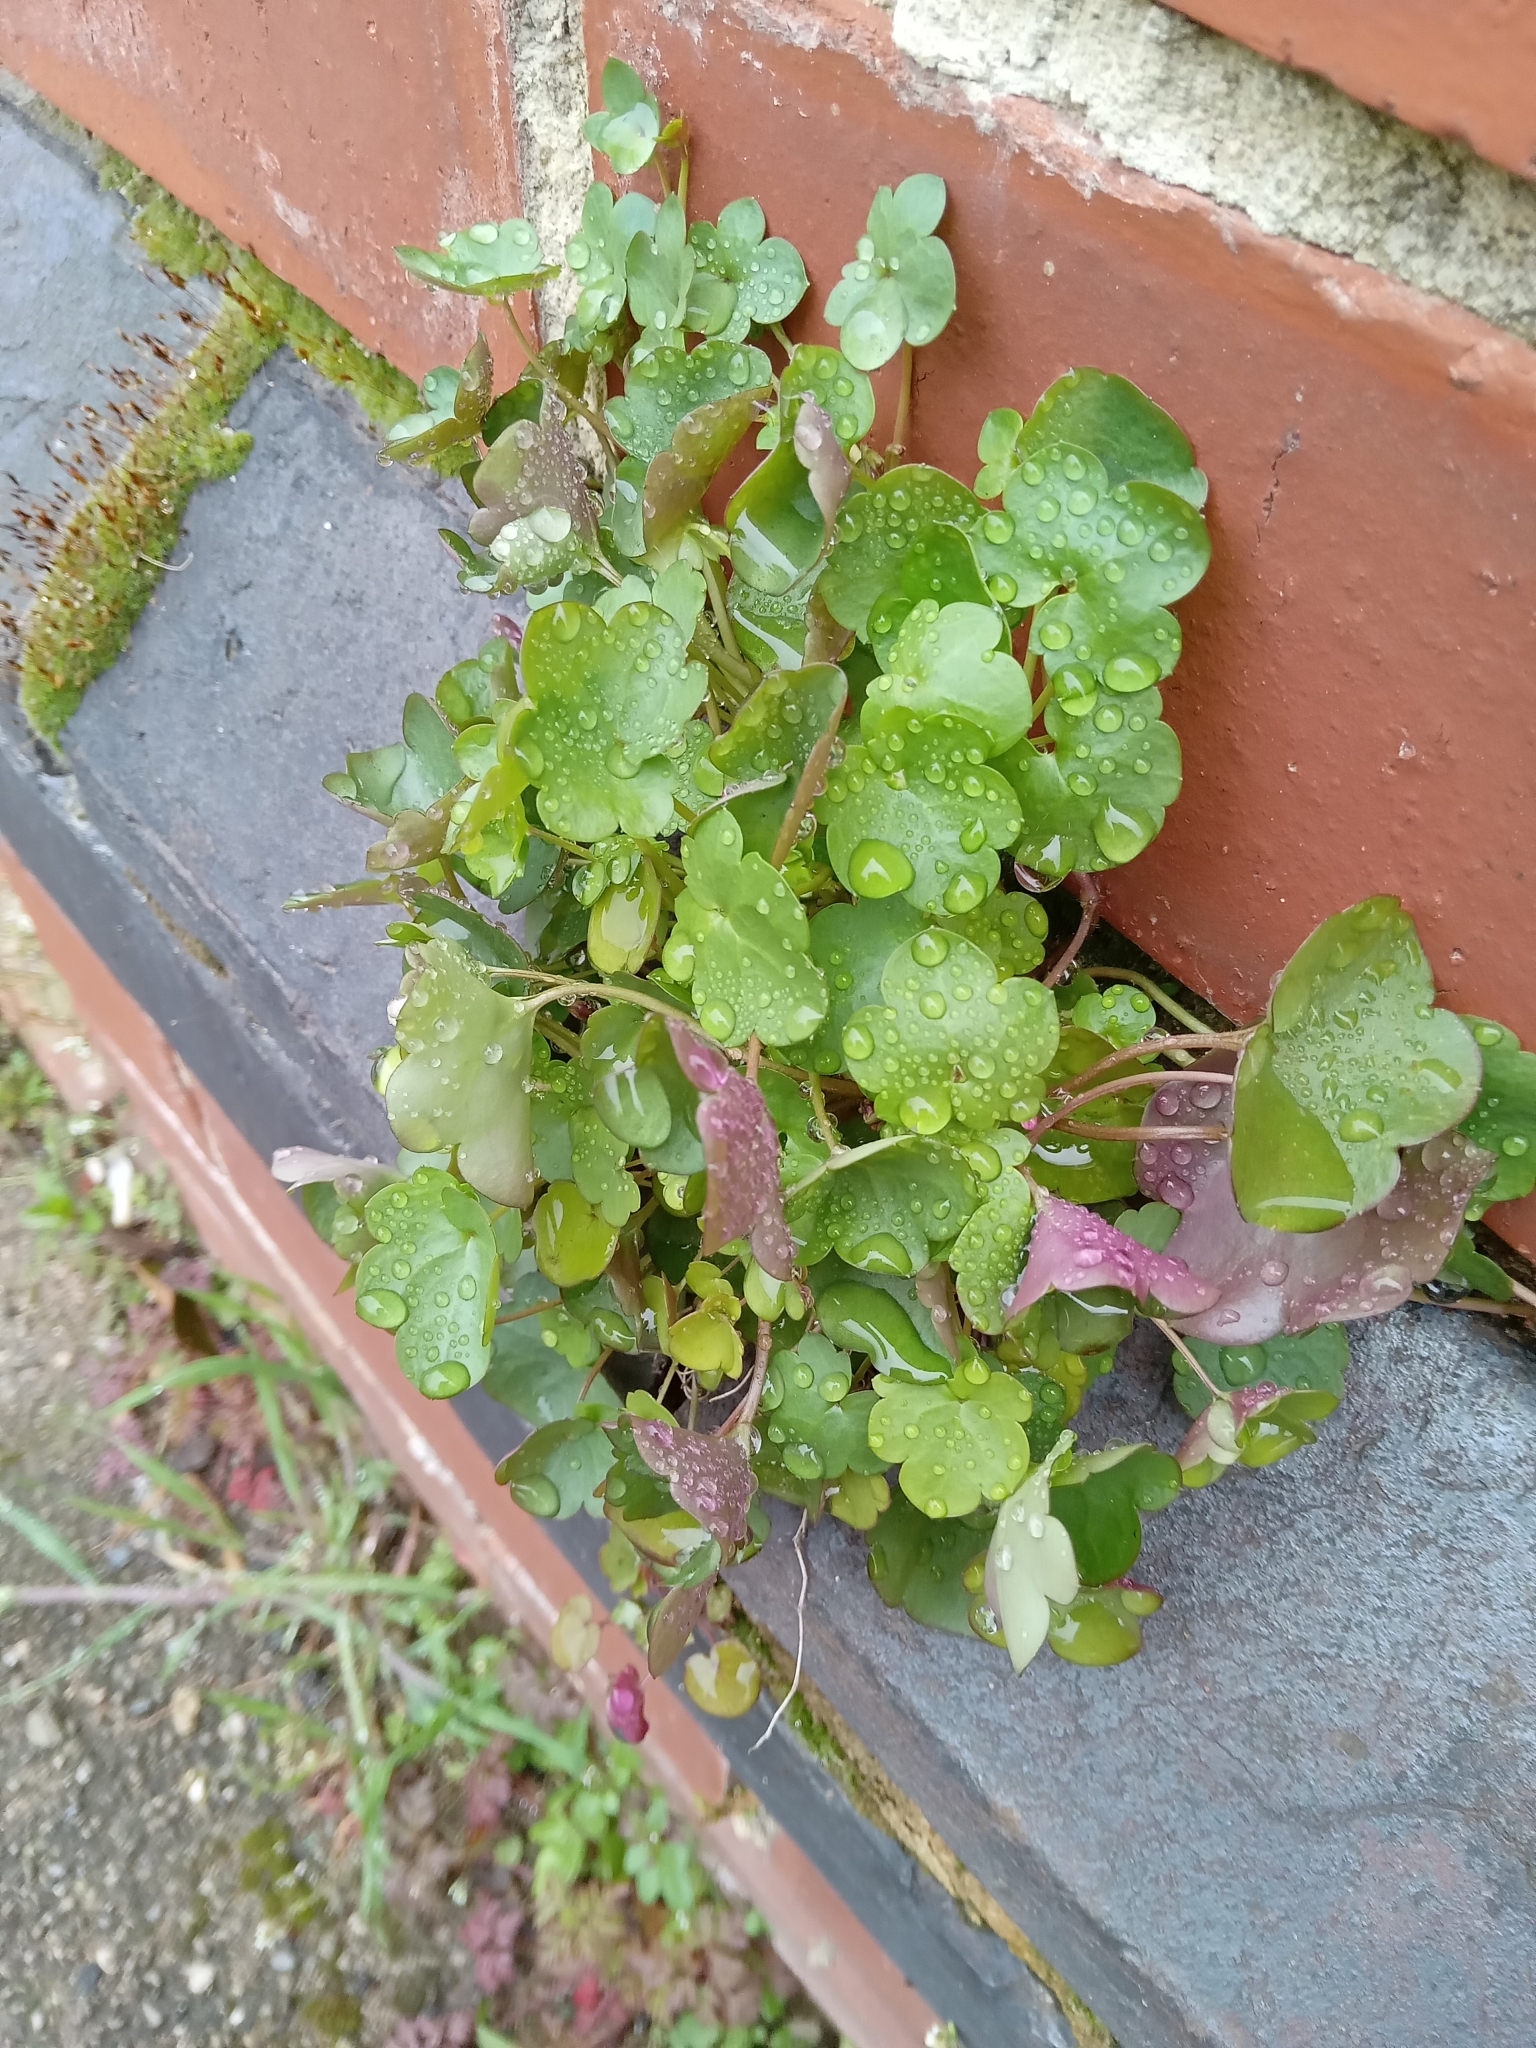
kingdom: Plantae
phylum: Tracheophyta
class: Magnoliopsida
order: Lamiales
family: Plantaginaceae
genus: Cymbalaria
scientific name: Cymbalaria muralis
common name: Ivy-leaved toadflax
